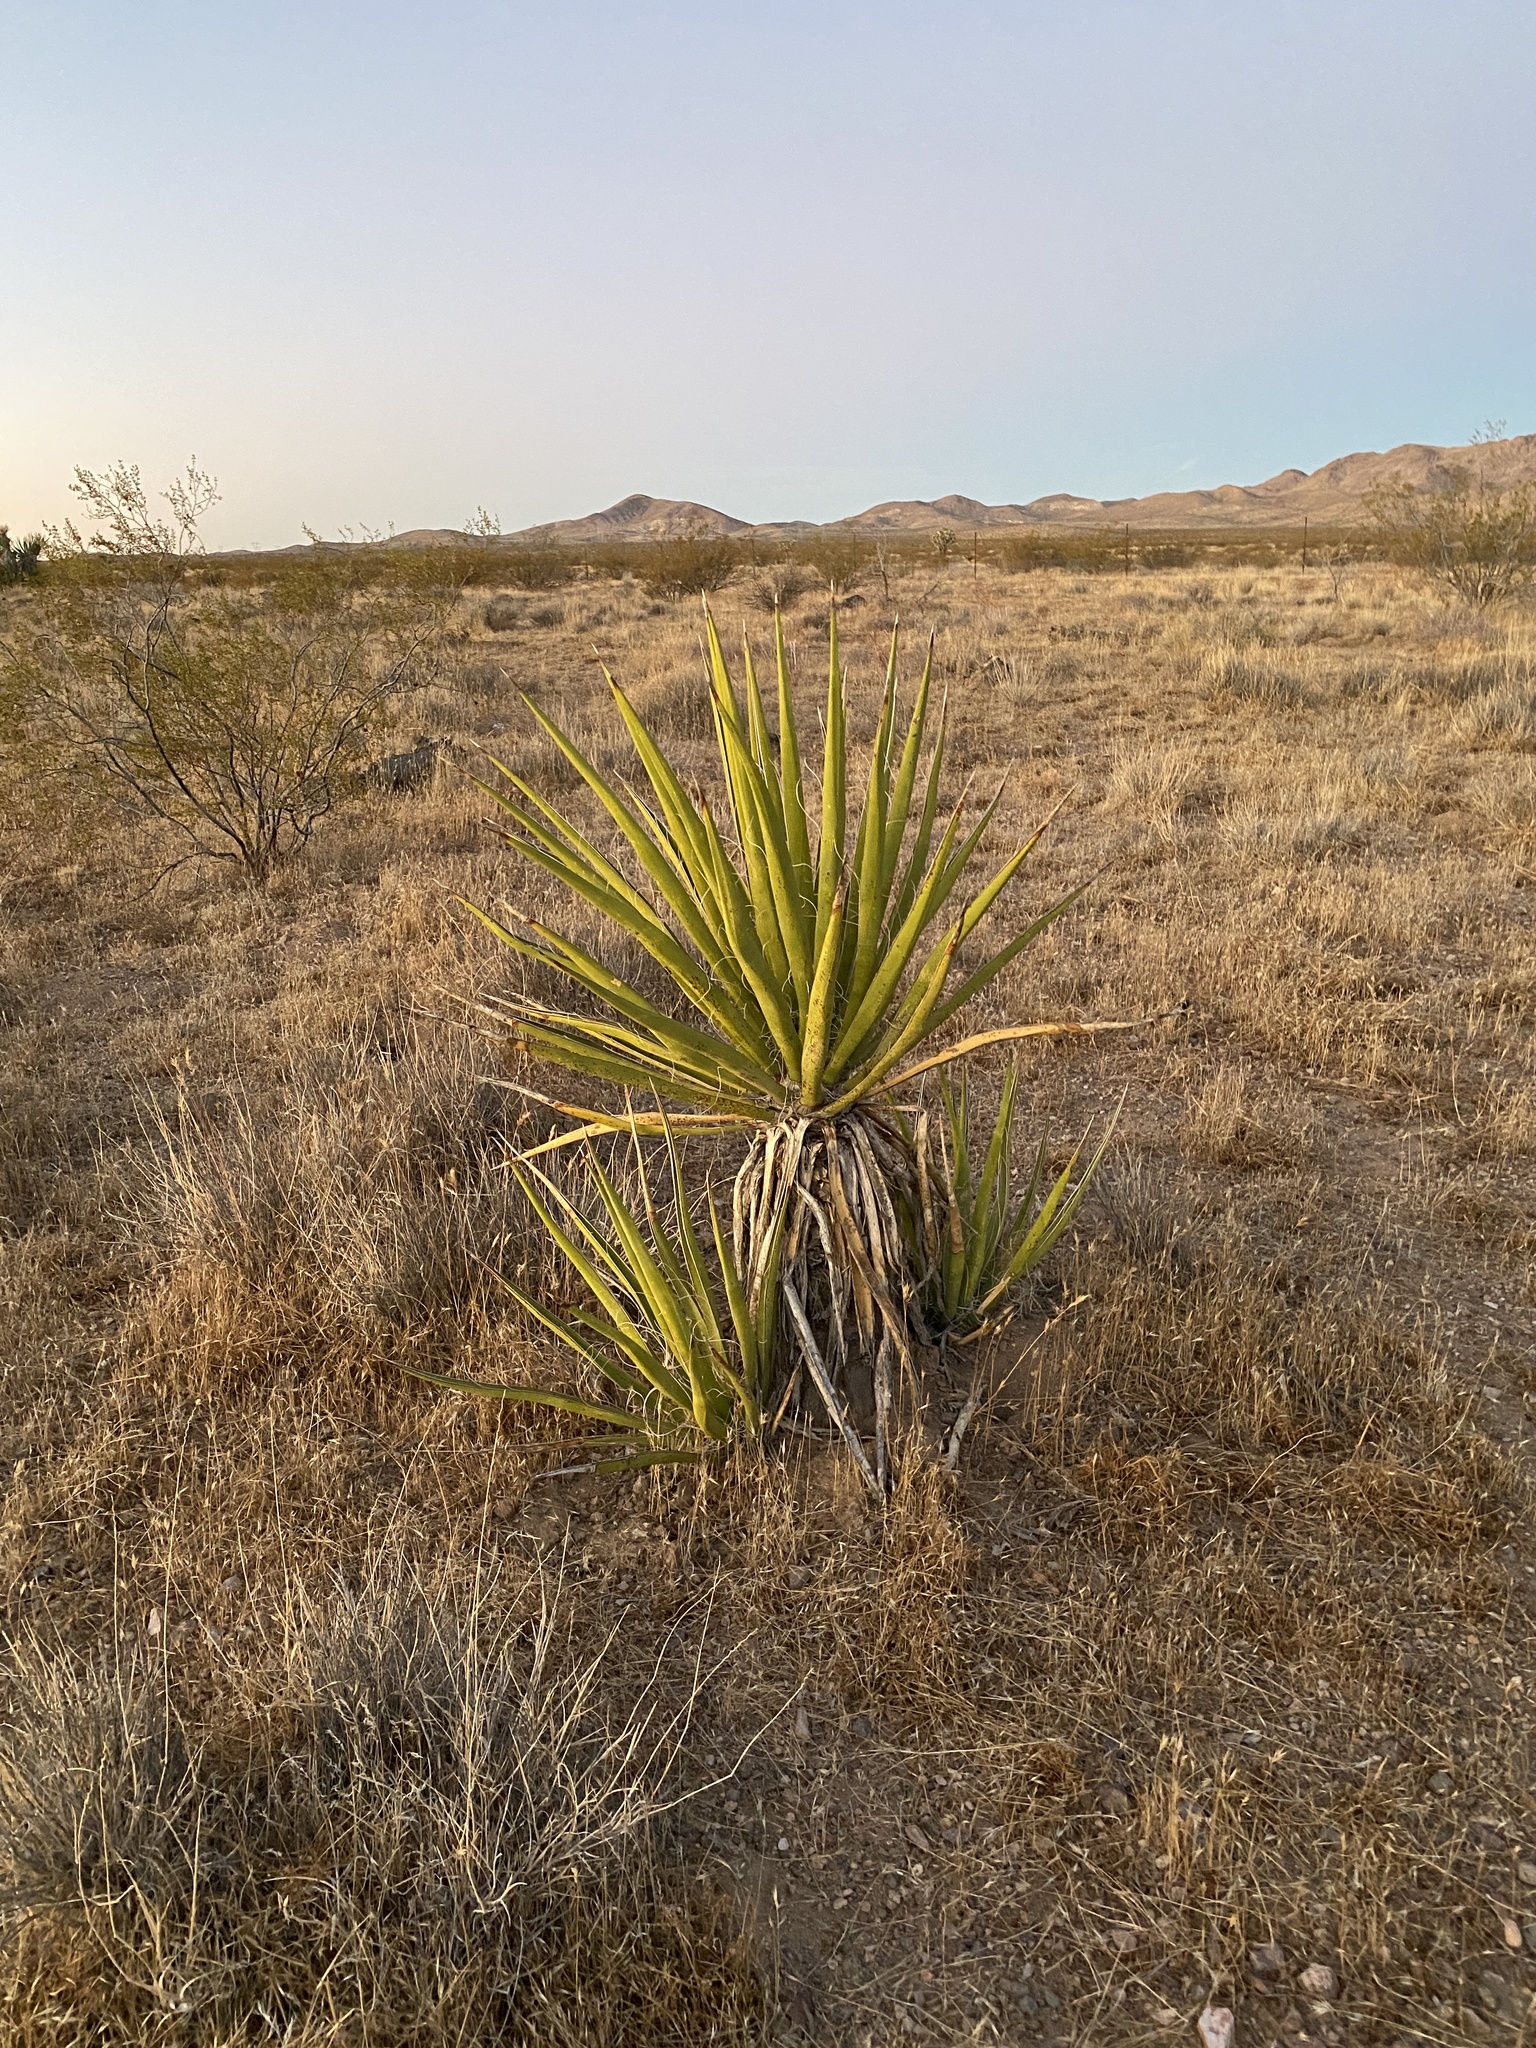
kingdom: Plantae
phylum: Tracheophyta
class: Liliopsida
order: Asparagales
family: Asparagaceae
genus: Yucca
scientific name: Yucca schidigera
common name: Mojave yucca
